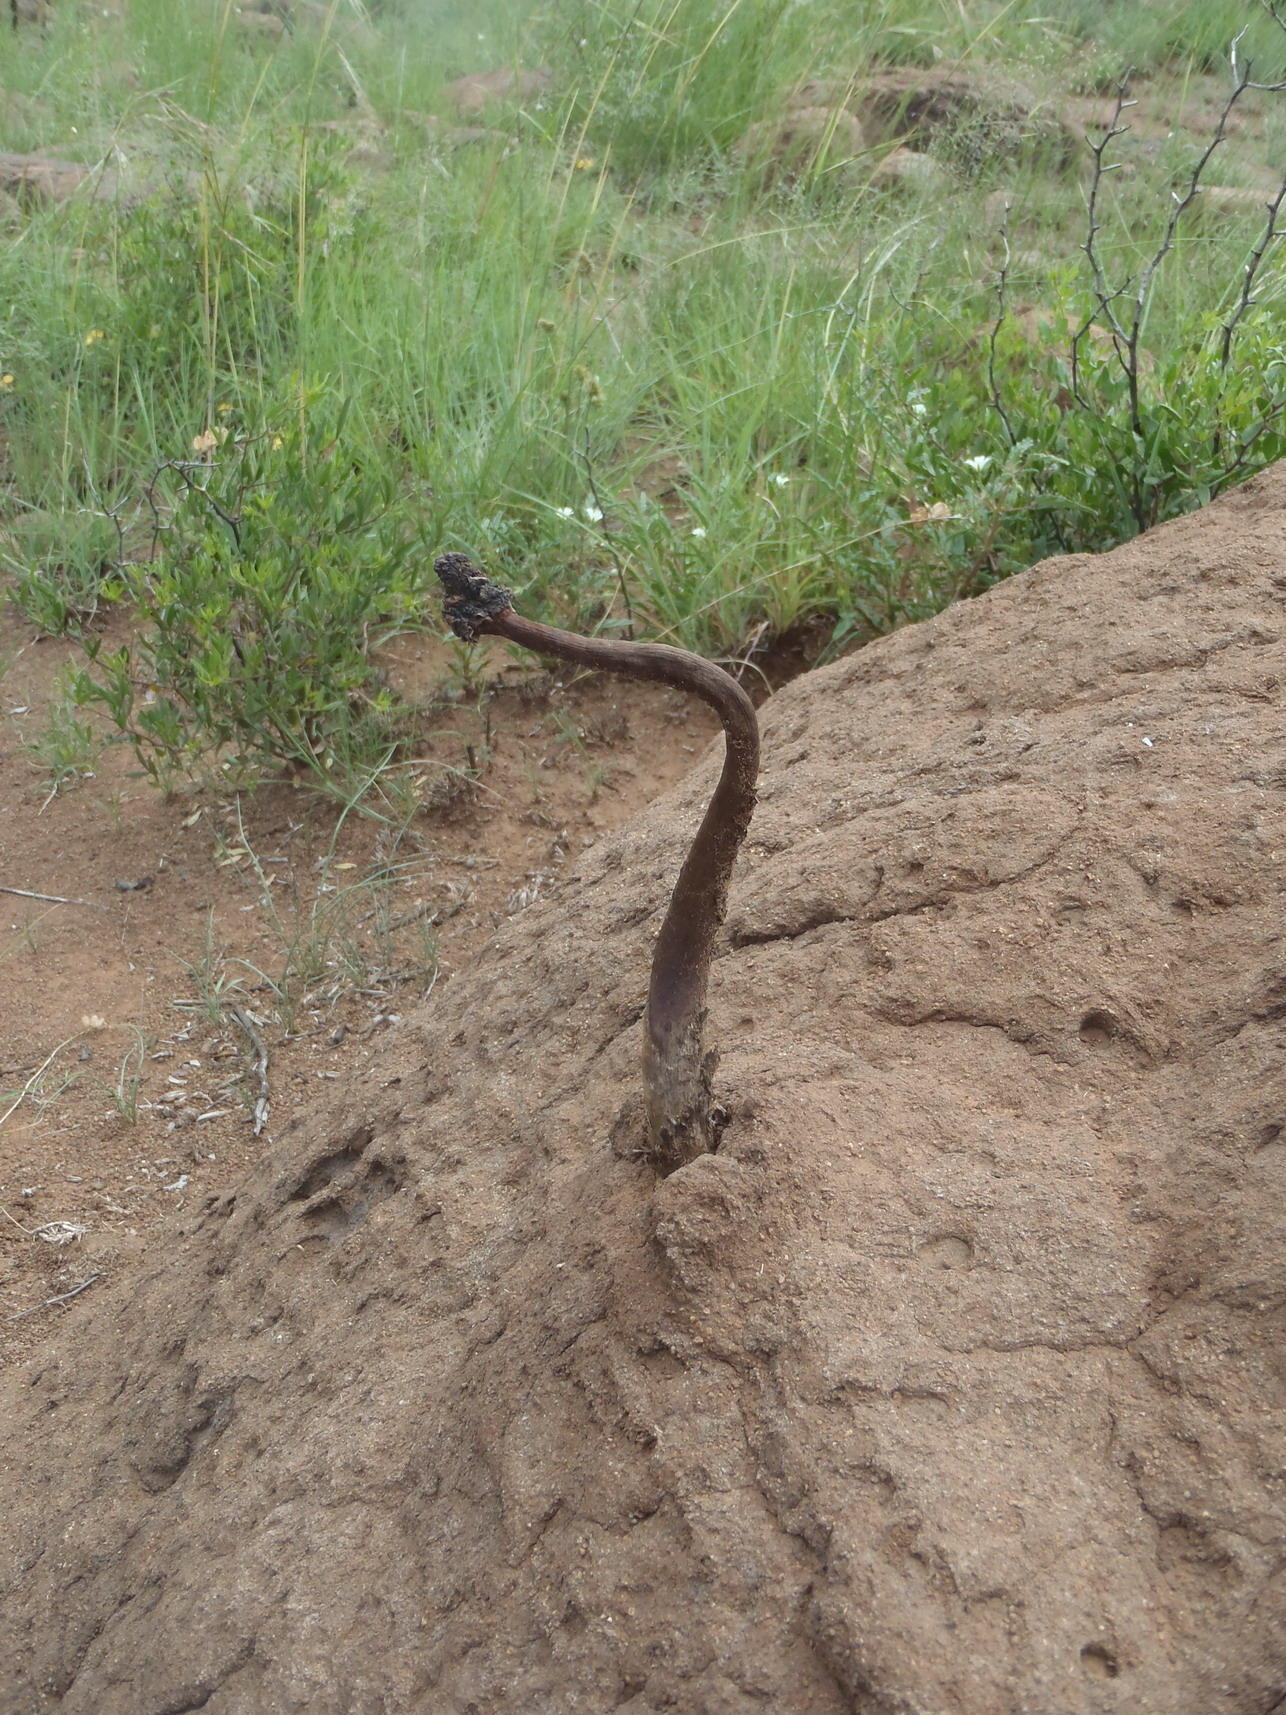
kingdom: Fungi
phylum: Basidiomycota
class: Agaricomycetes
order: Agaricales
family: Agaricaceae
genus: Podaxis
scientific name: Podaxis pistillaris
